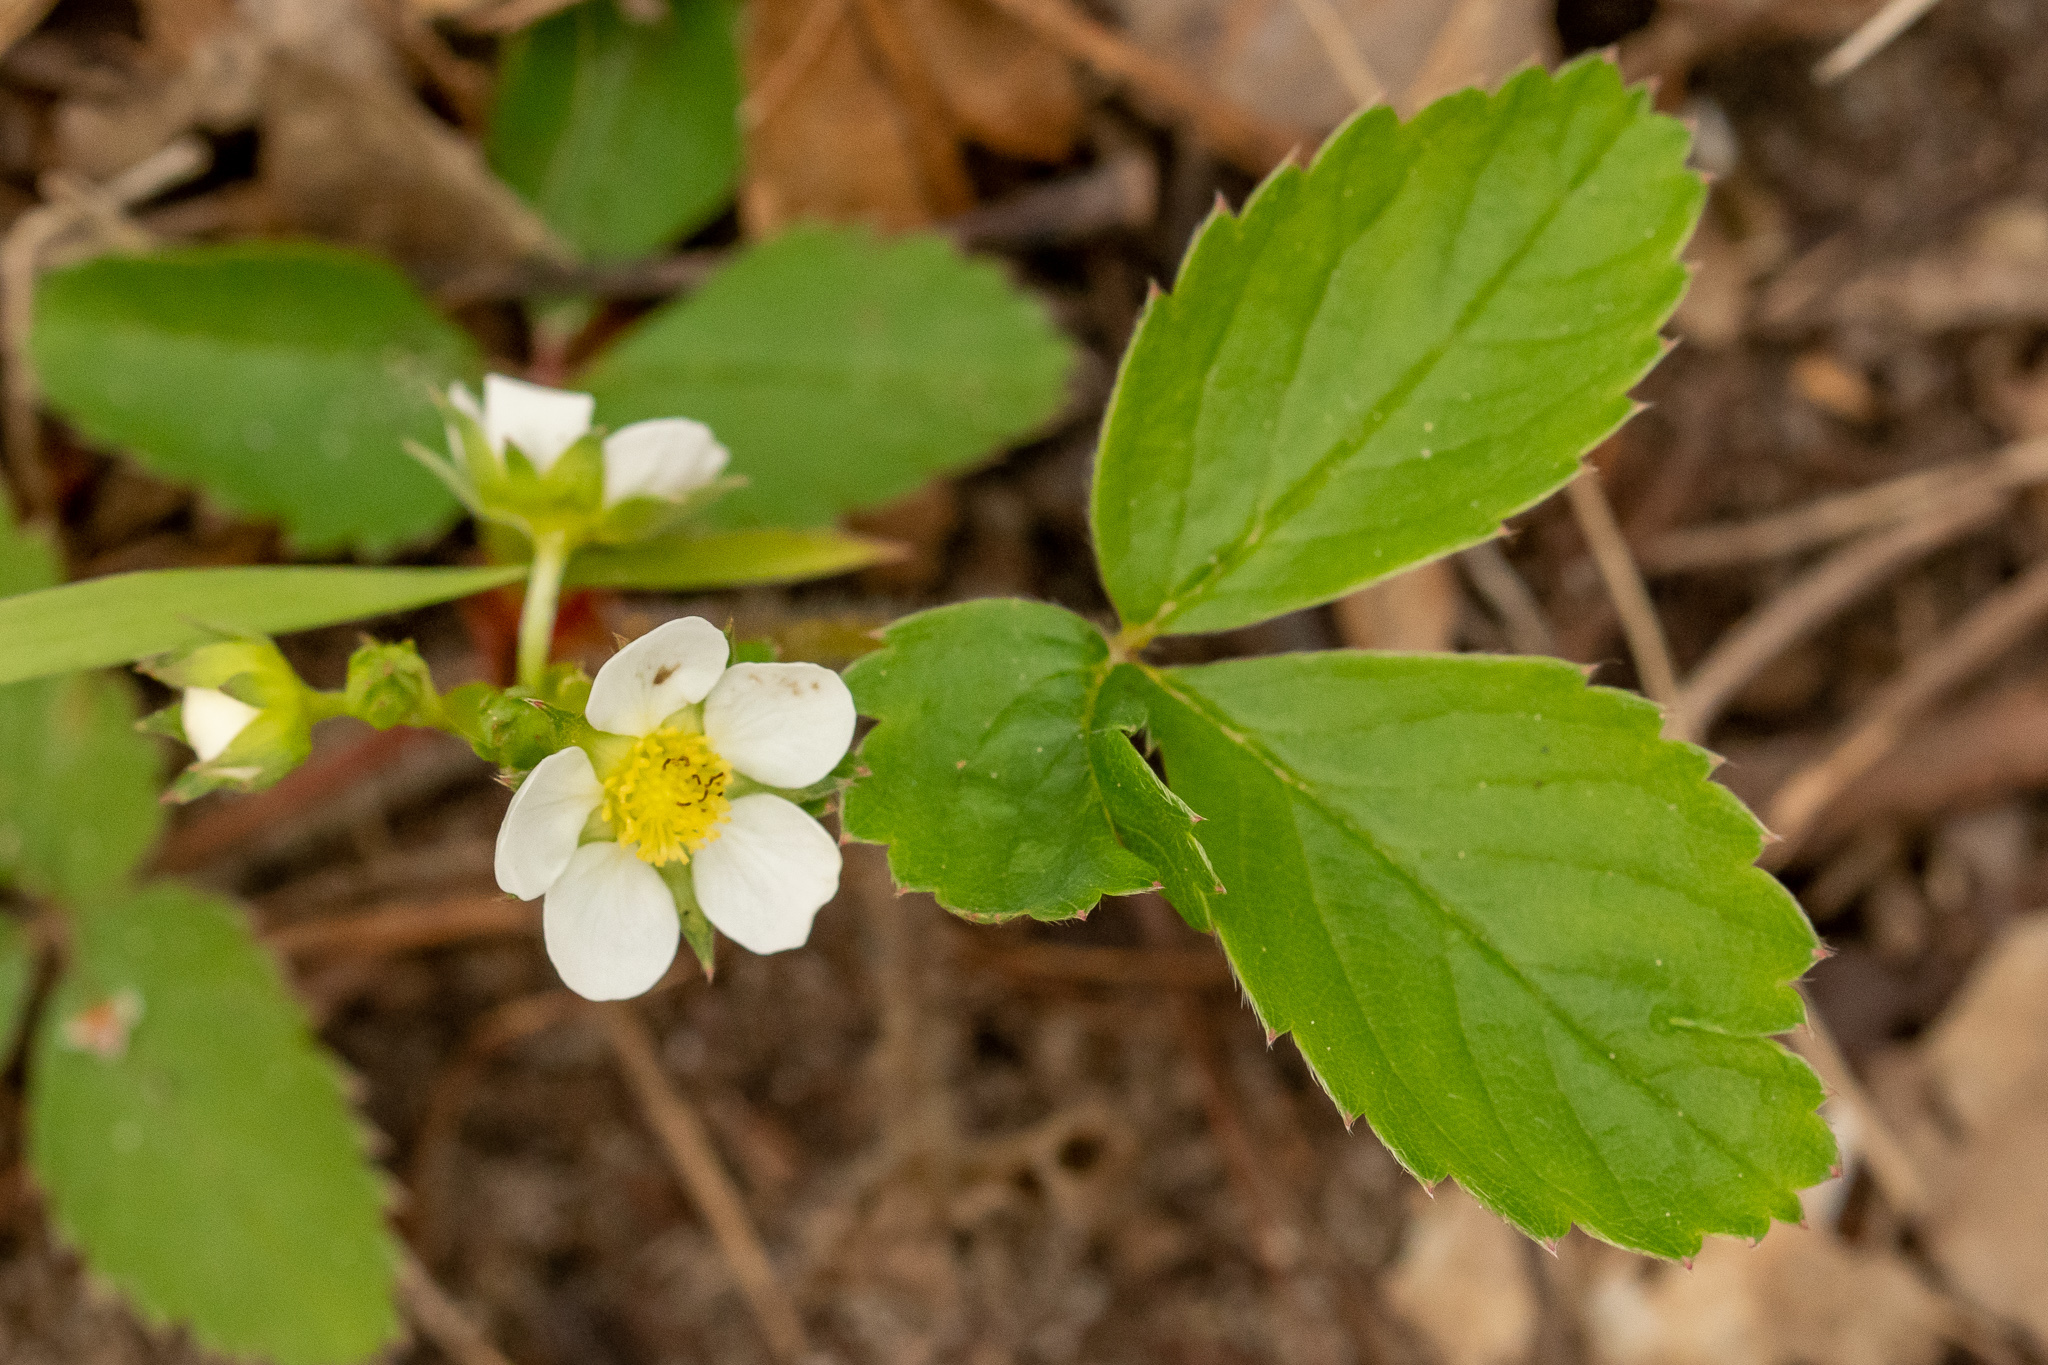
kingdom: Plantae
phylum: Tracheophyta
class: Magnoliopsida
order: Rosales
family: Rosaceae
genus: Fragaria
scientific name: Fragaria virginiana
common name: Thickleaved wild strawberry
